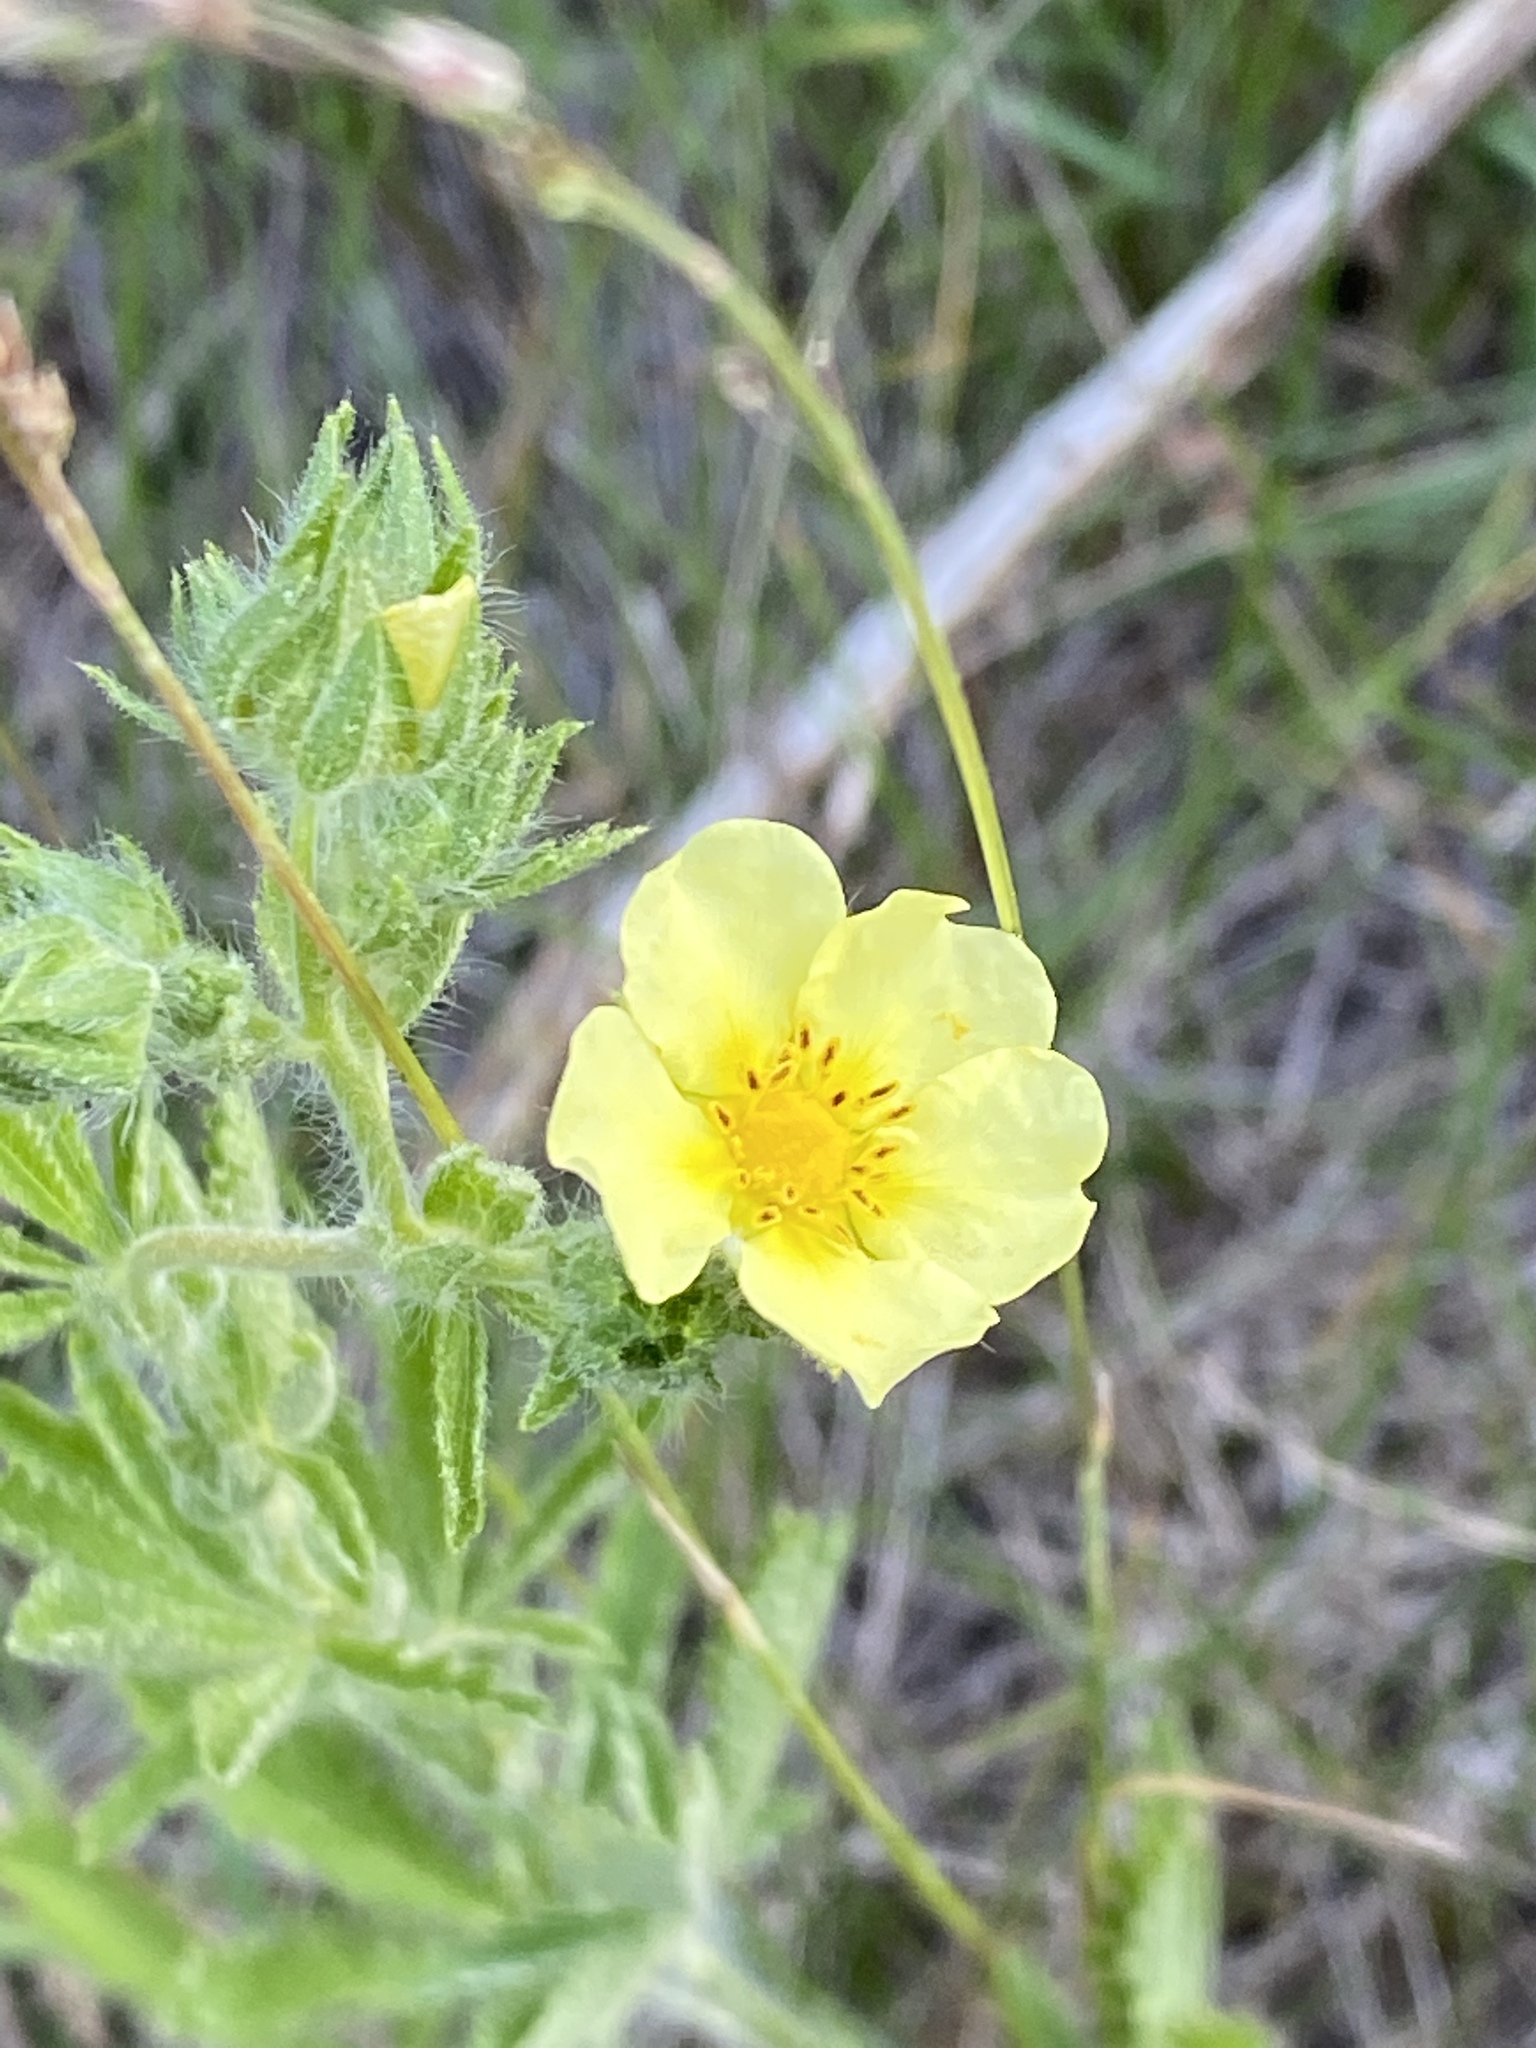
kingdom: Plantae
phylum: Tracheophyta
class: Magnoliopsida
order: Rosales
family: Rosaceae
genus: Potentilla
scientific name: Potentilla recta
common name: Sulphur cinquefoil
